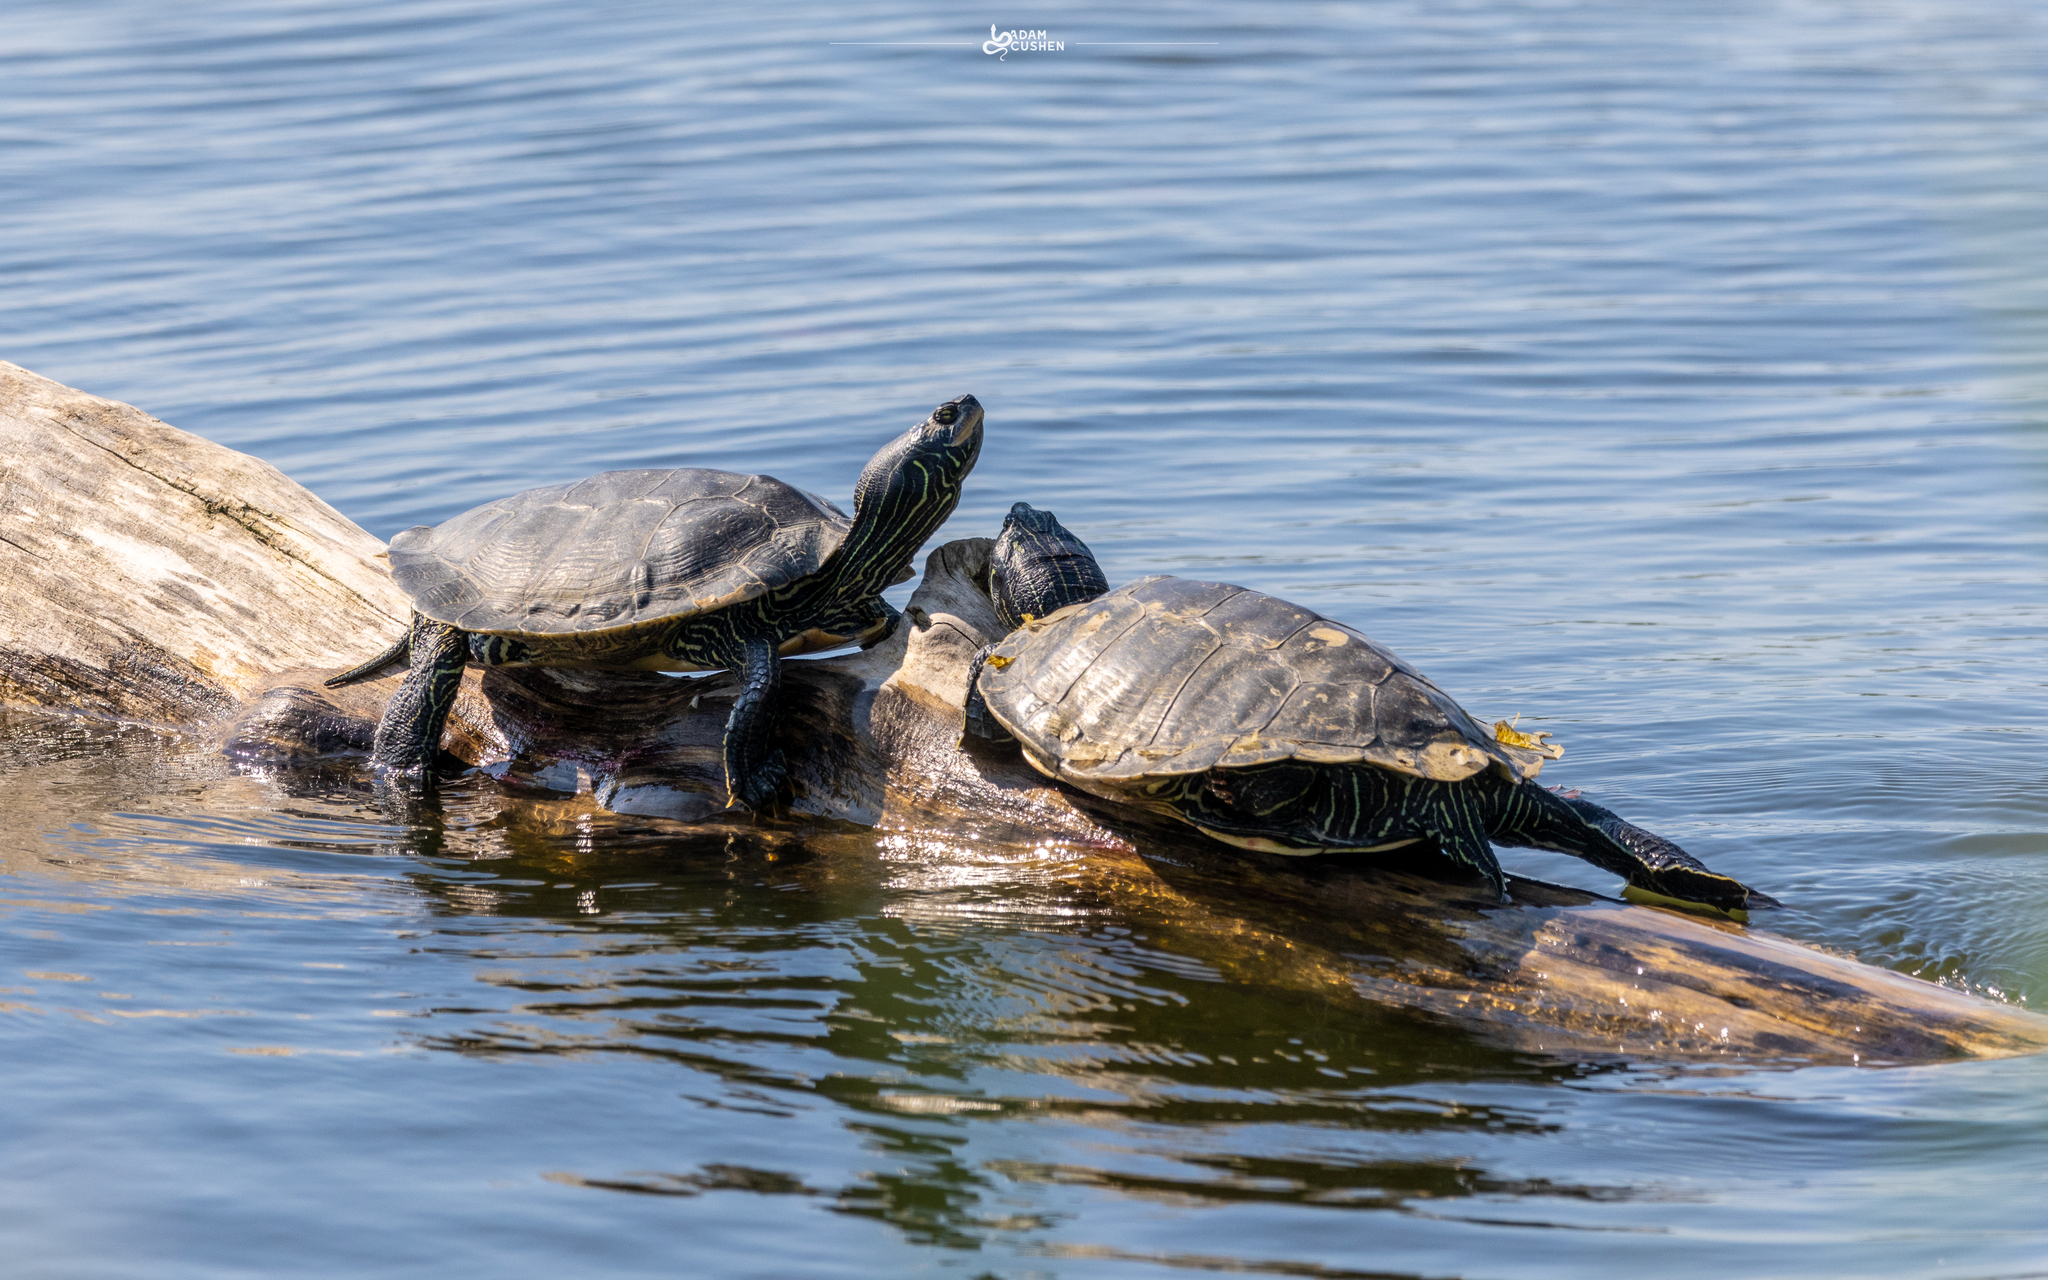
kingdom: Animalia
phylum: Chordata
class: Testudines
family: Emydidae
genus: Graptemys
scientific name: Graptemys geographica
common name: Common map turtle
